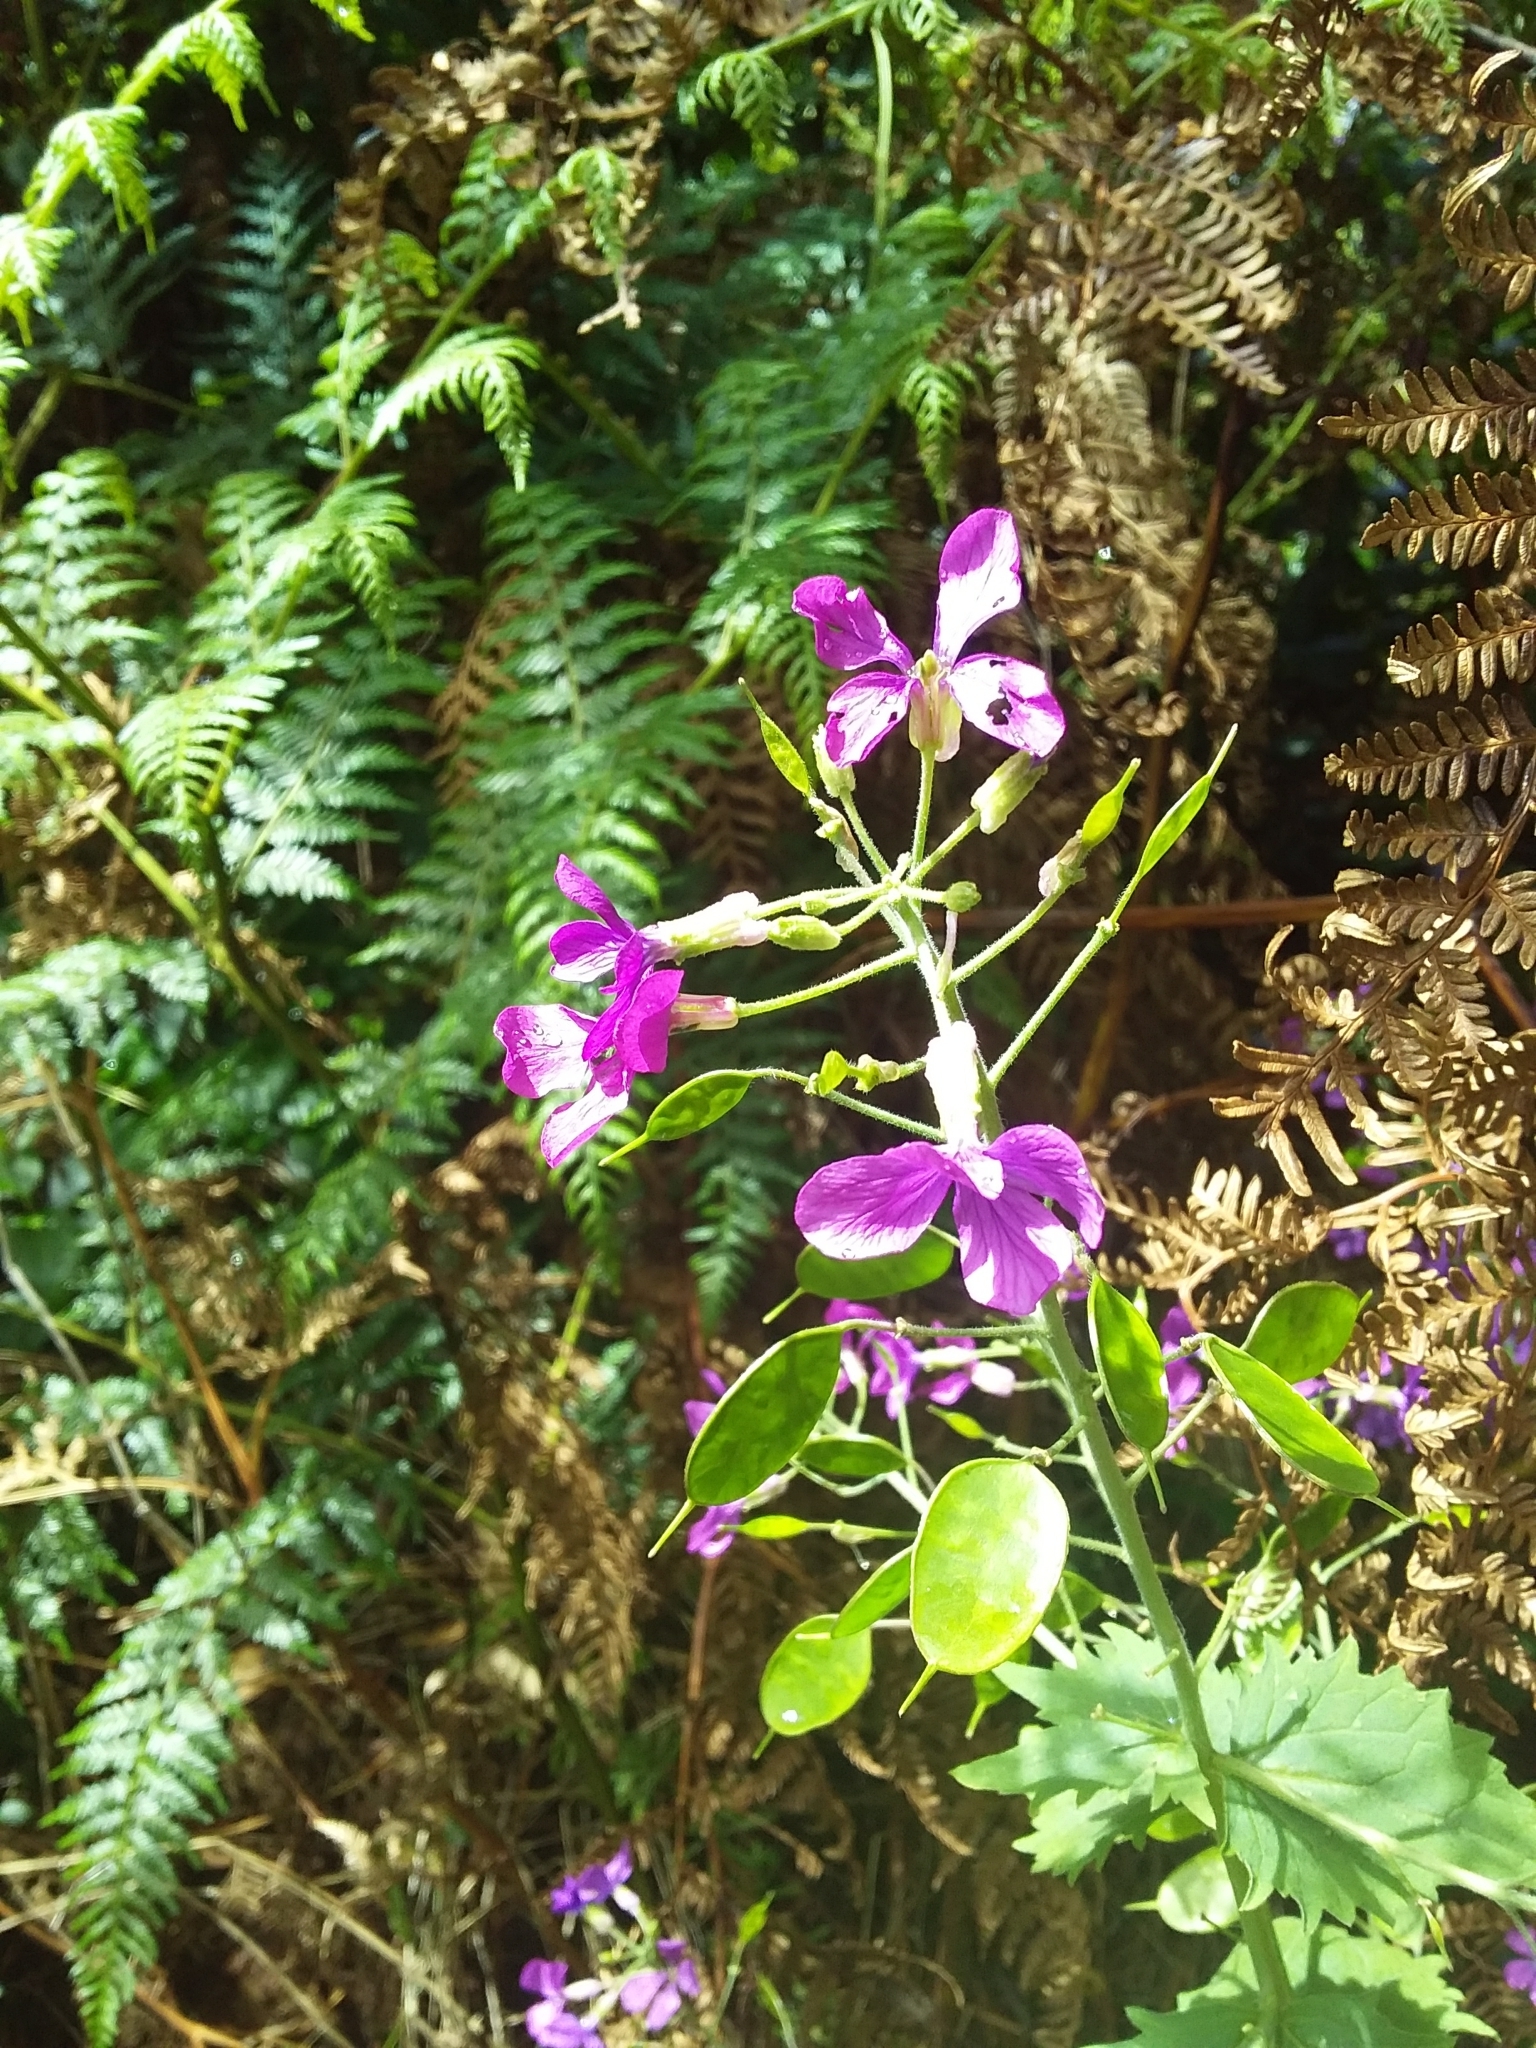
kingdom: Plantae
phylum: Tracheophyta
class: Magnoliopsida
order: Brassicales
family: Brassicaceae
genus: Lunaria
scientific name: Lunaria annua
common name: Honesty
